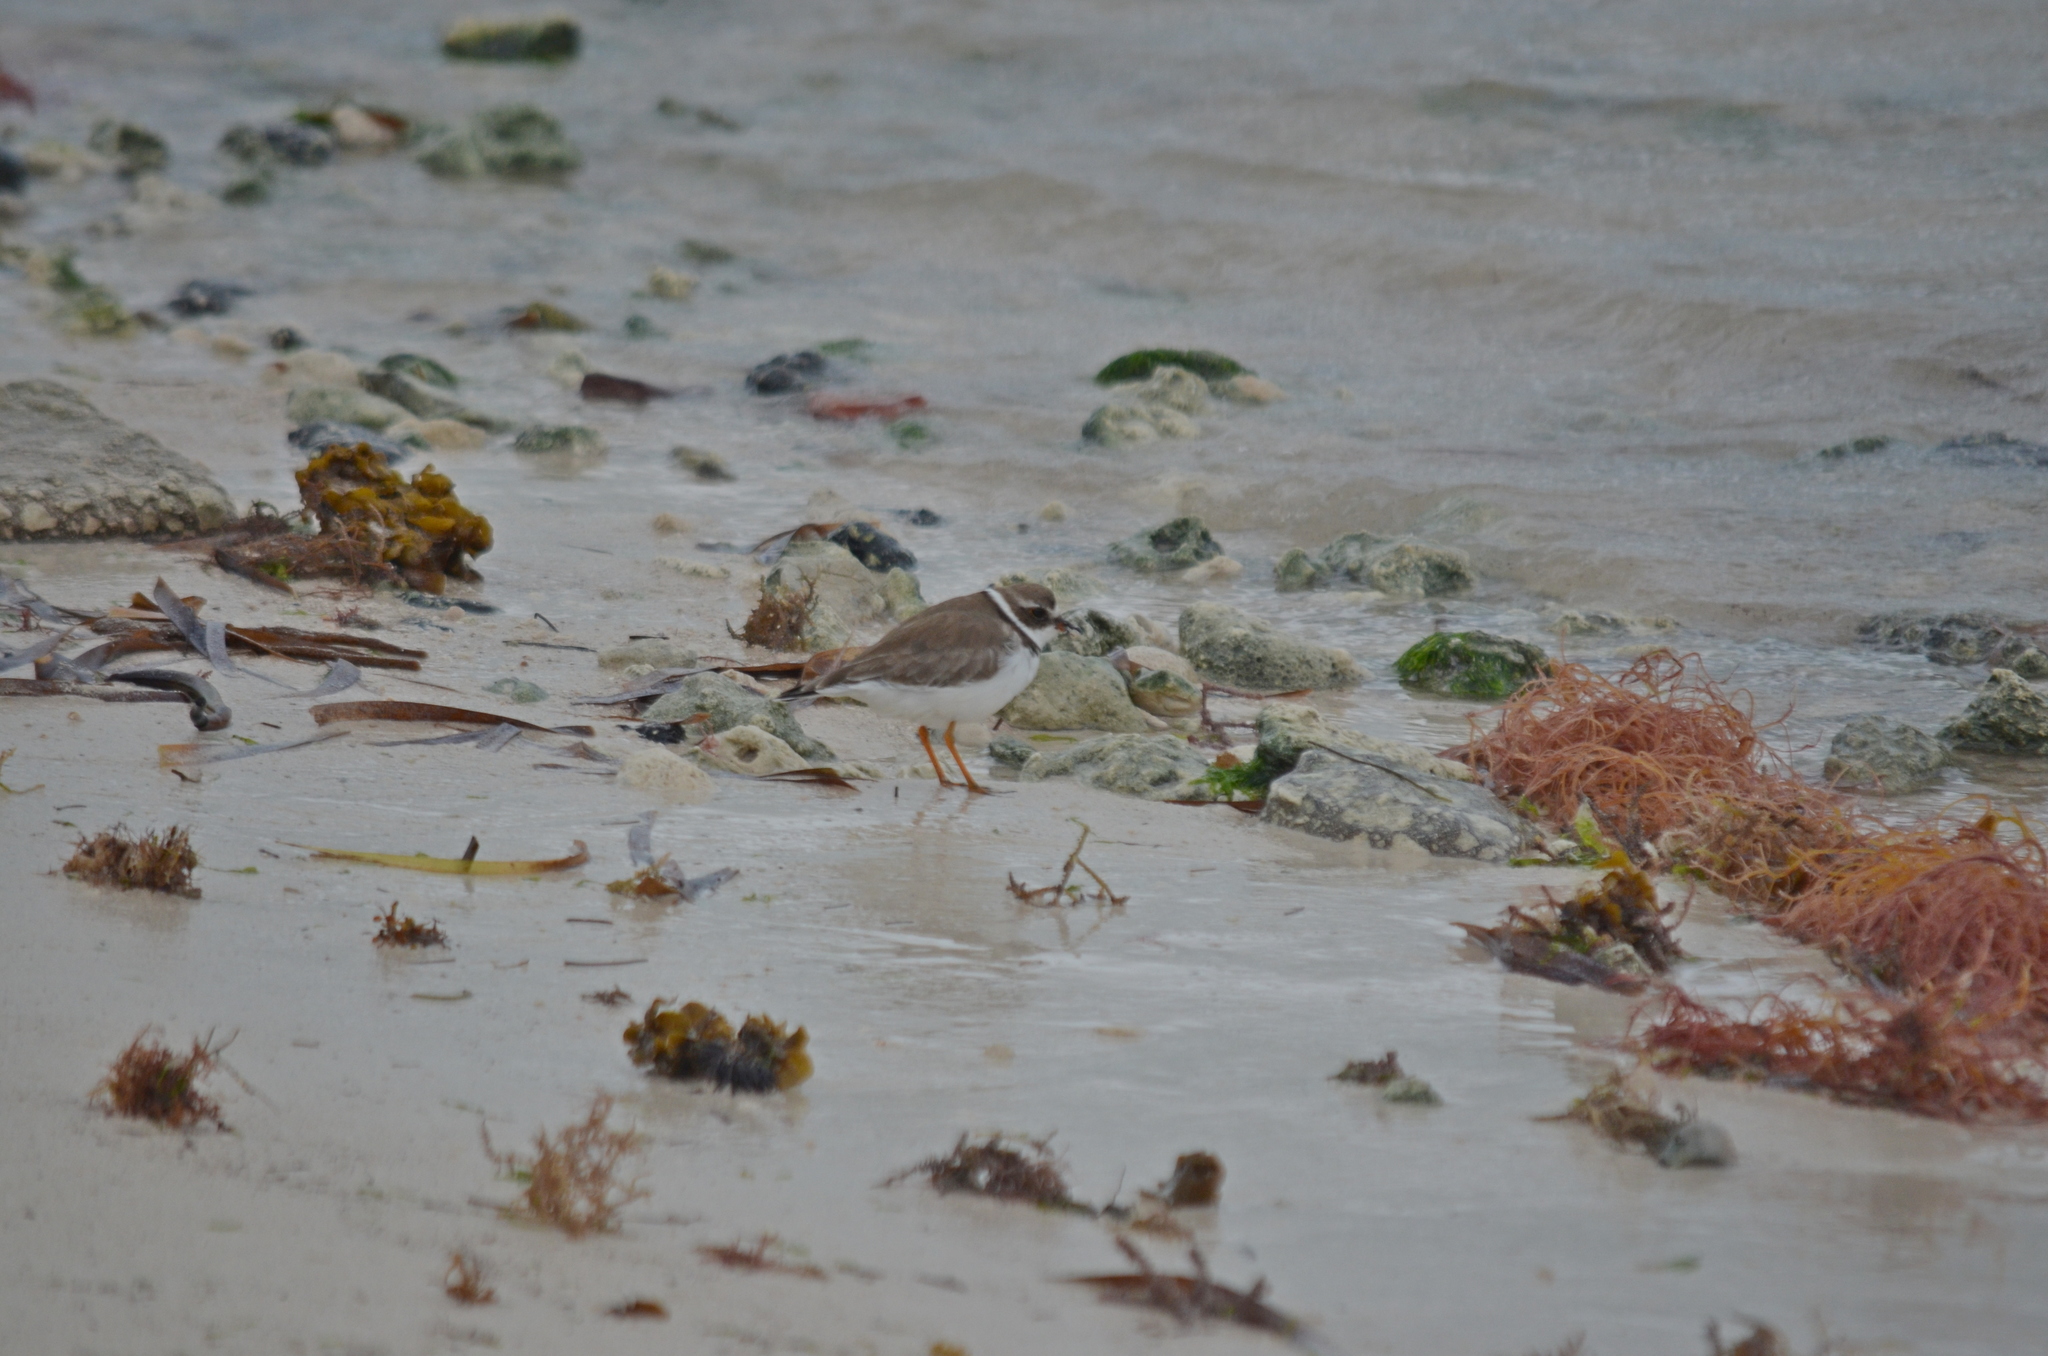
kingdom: Animalia
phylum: Chordata
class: Aves
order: Charadriiformes
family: Charadriidae
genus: Charadrius
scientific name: Charadrius semipalmatus
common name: Semipalmated plover
